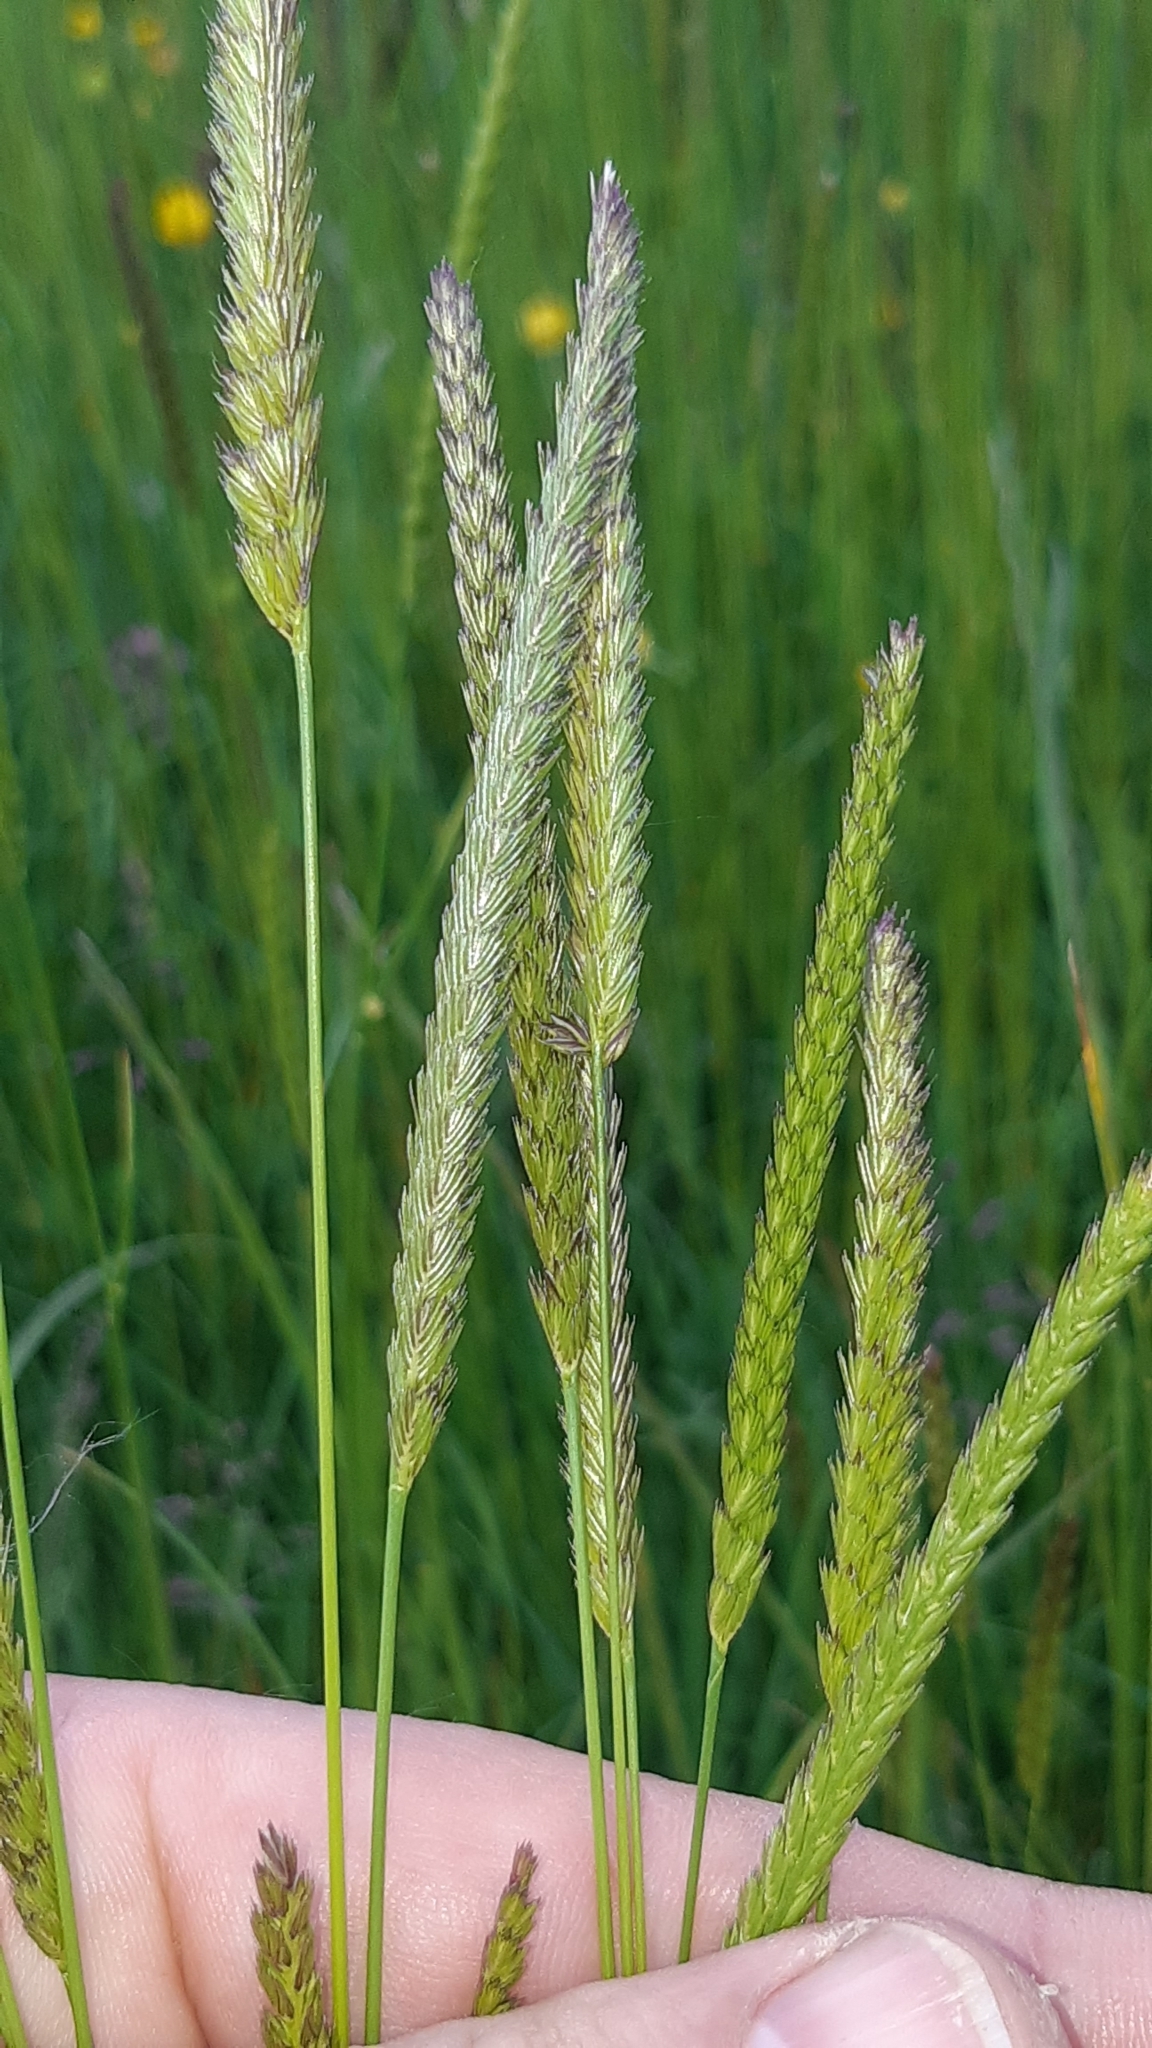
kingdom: Plantae
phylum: Tracheophyta
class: Liliopsida
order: Poales
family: Poaceae
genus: Cynosurus
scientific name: Cynosurus cristatus
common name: Crested dog's-tail
